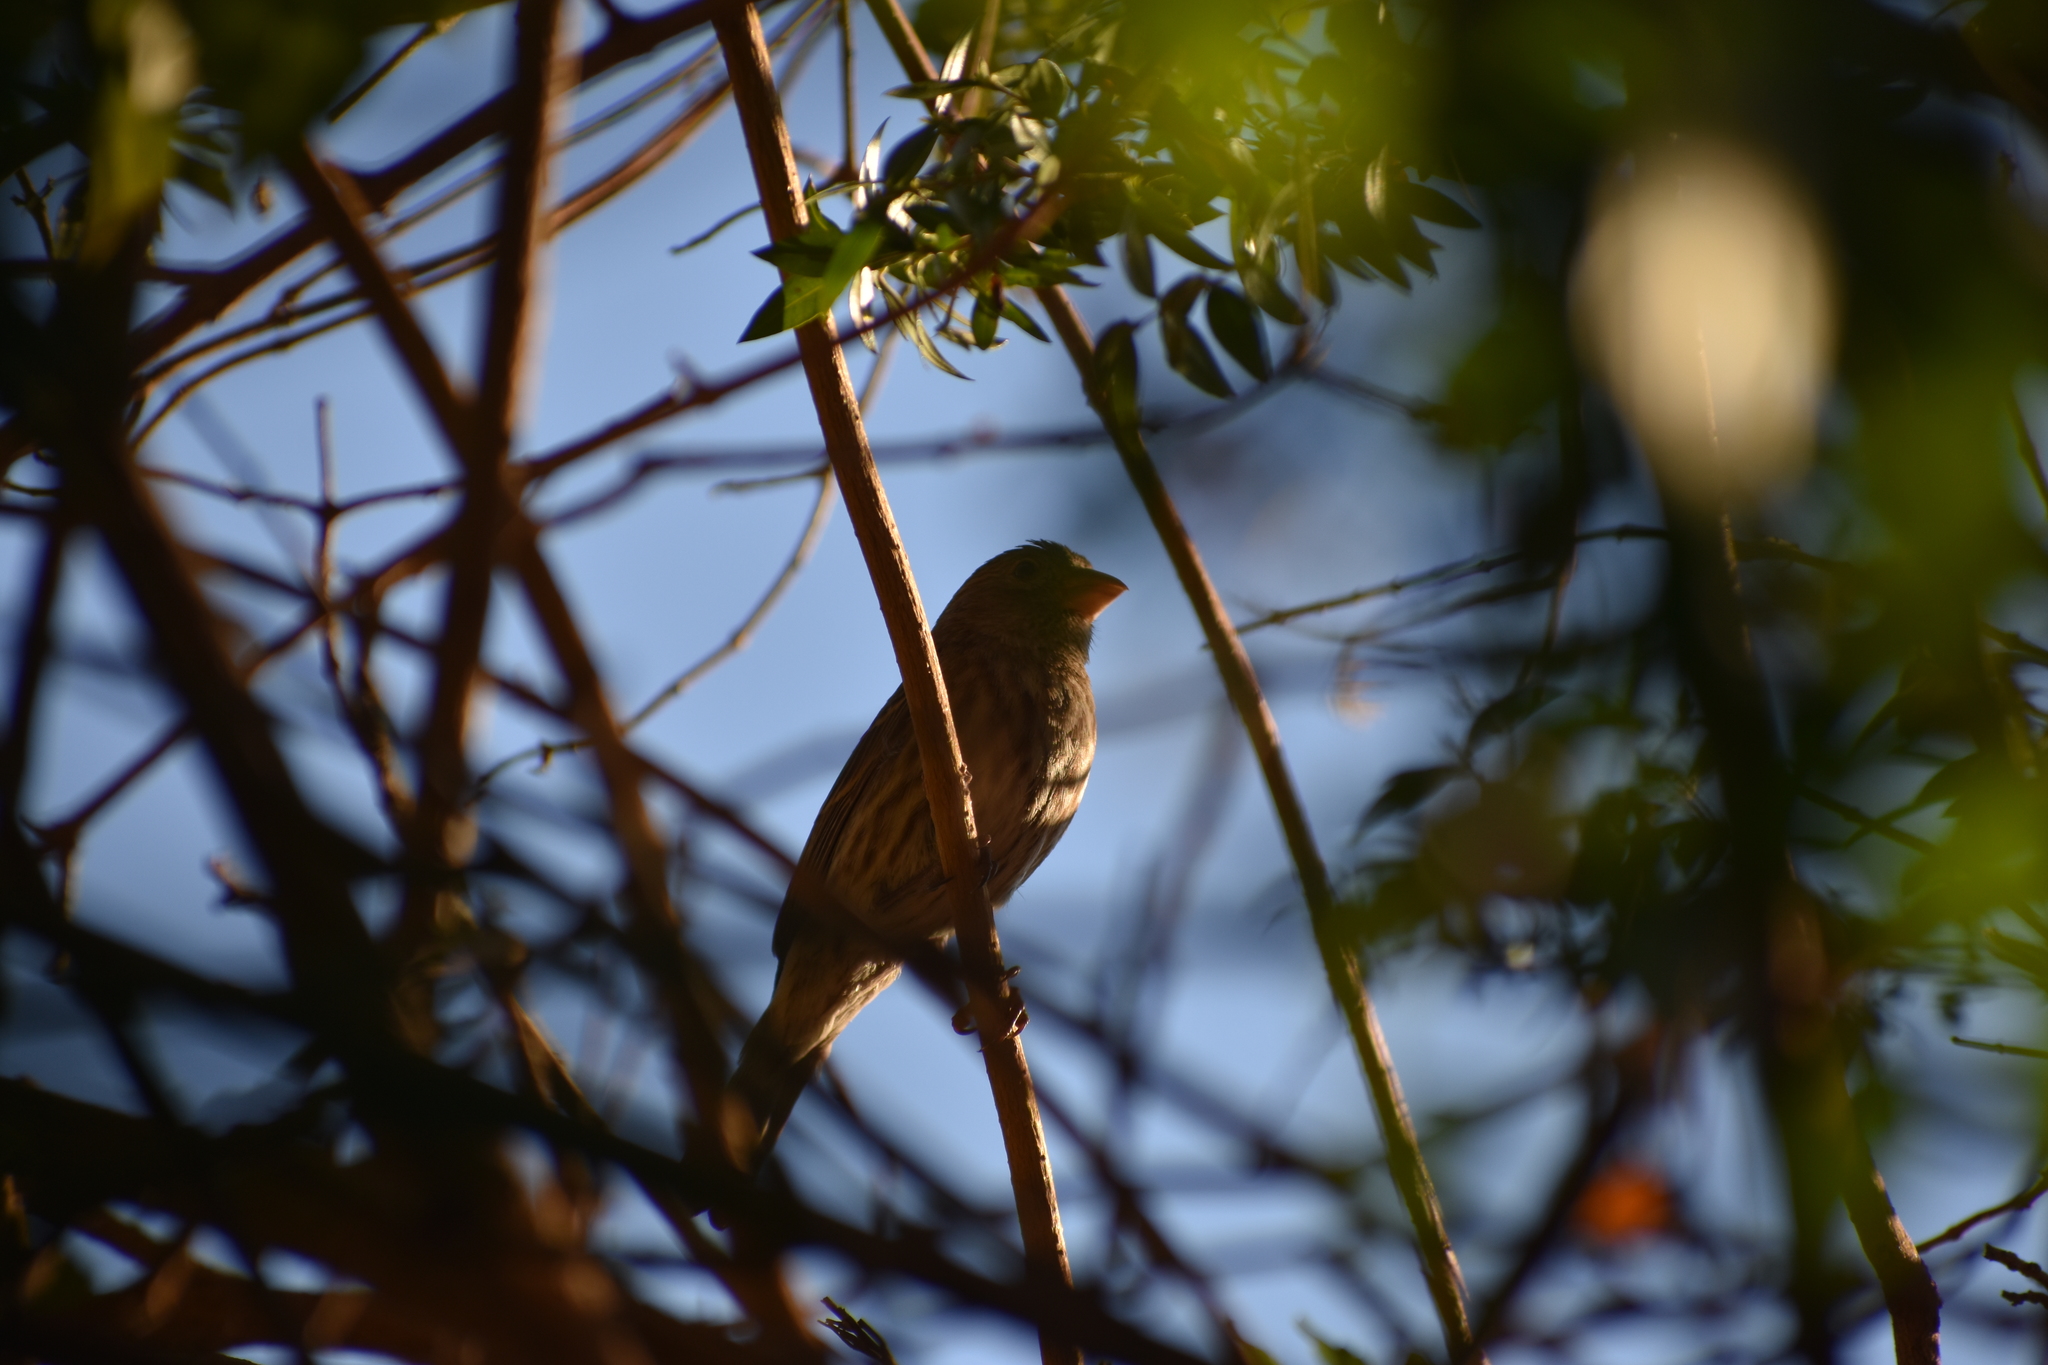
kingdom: Animalia
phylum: Chordata
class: Aves
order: Passeriformes
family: Fringillidae
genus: Haemorhous
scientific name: Haemorhous mexicanus
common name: House finch
